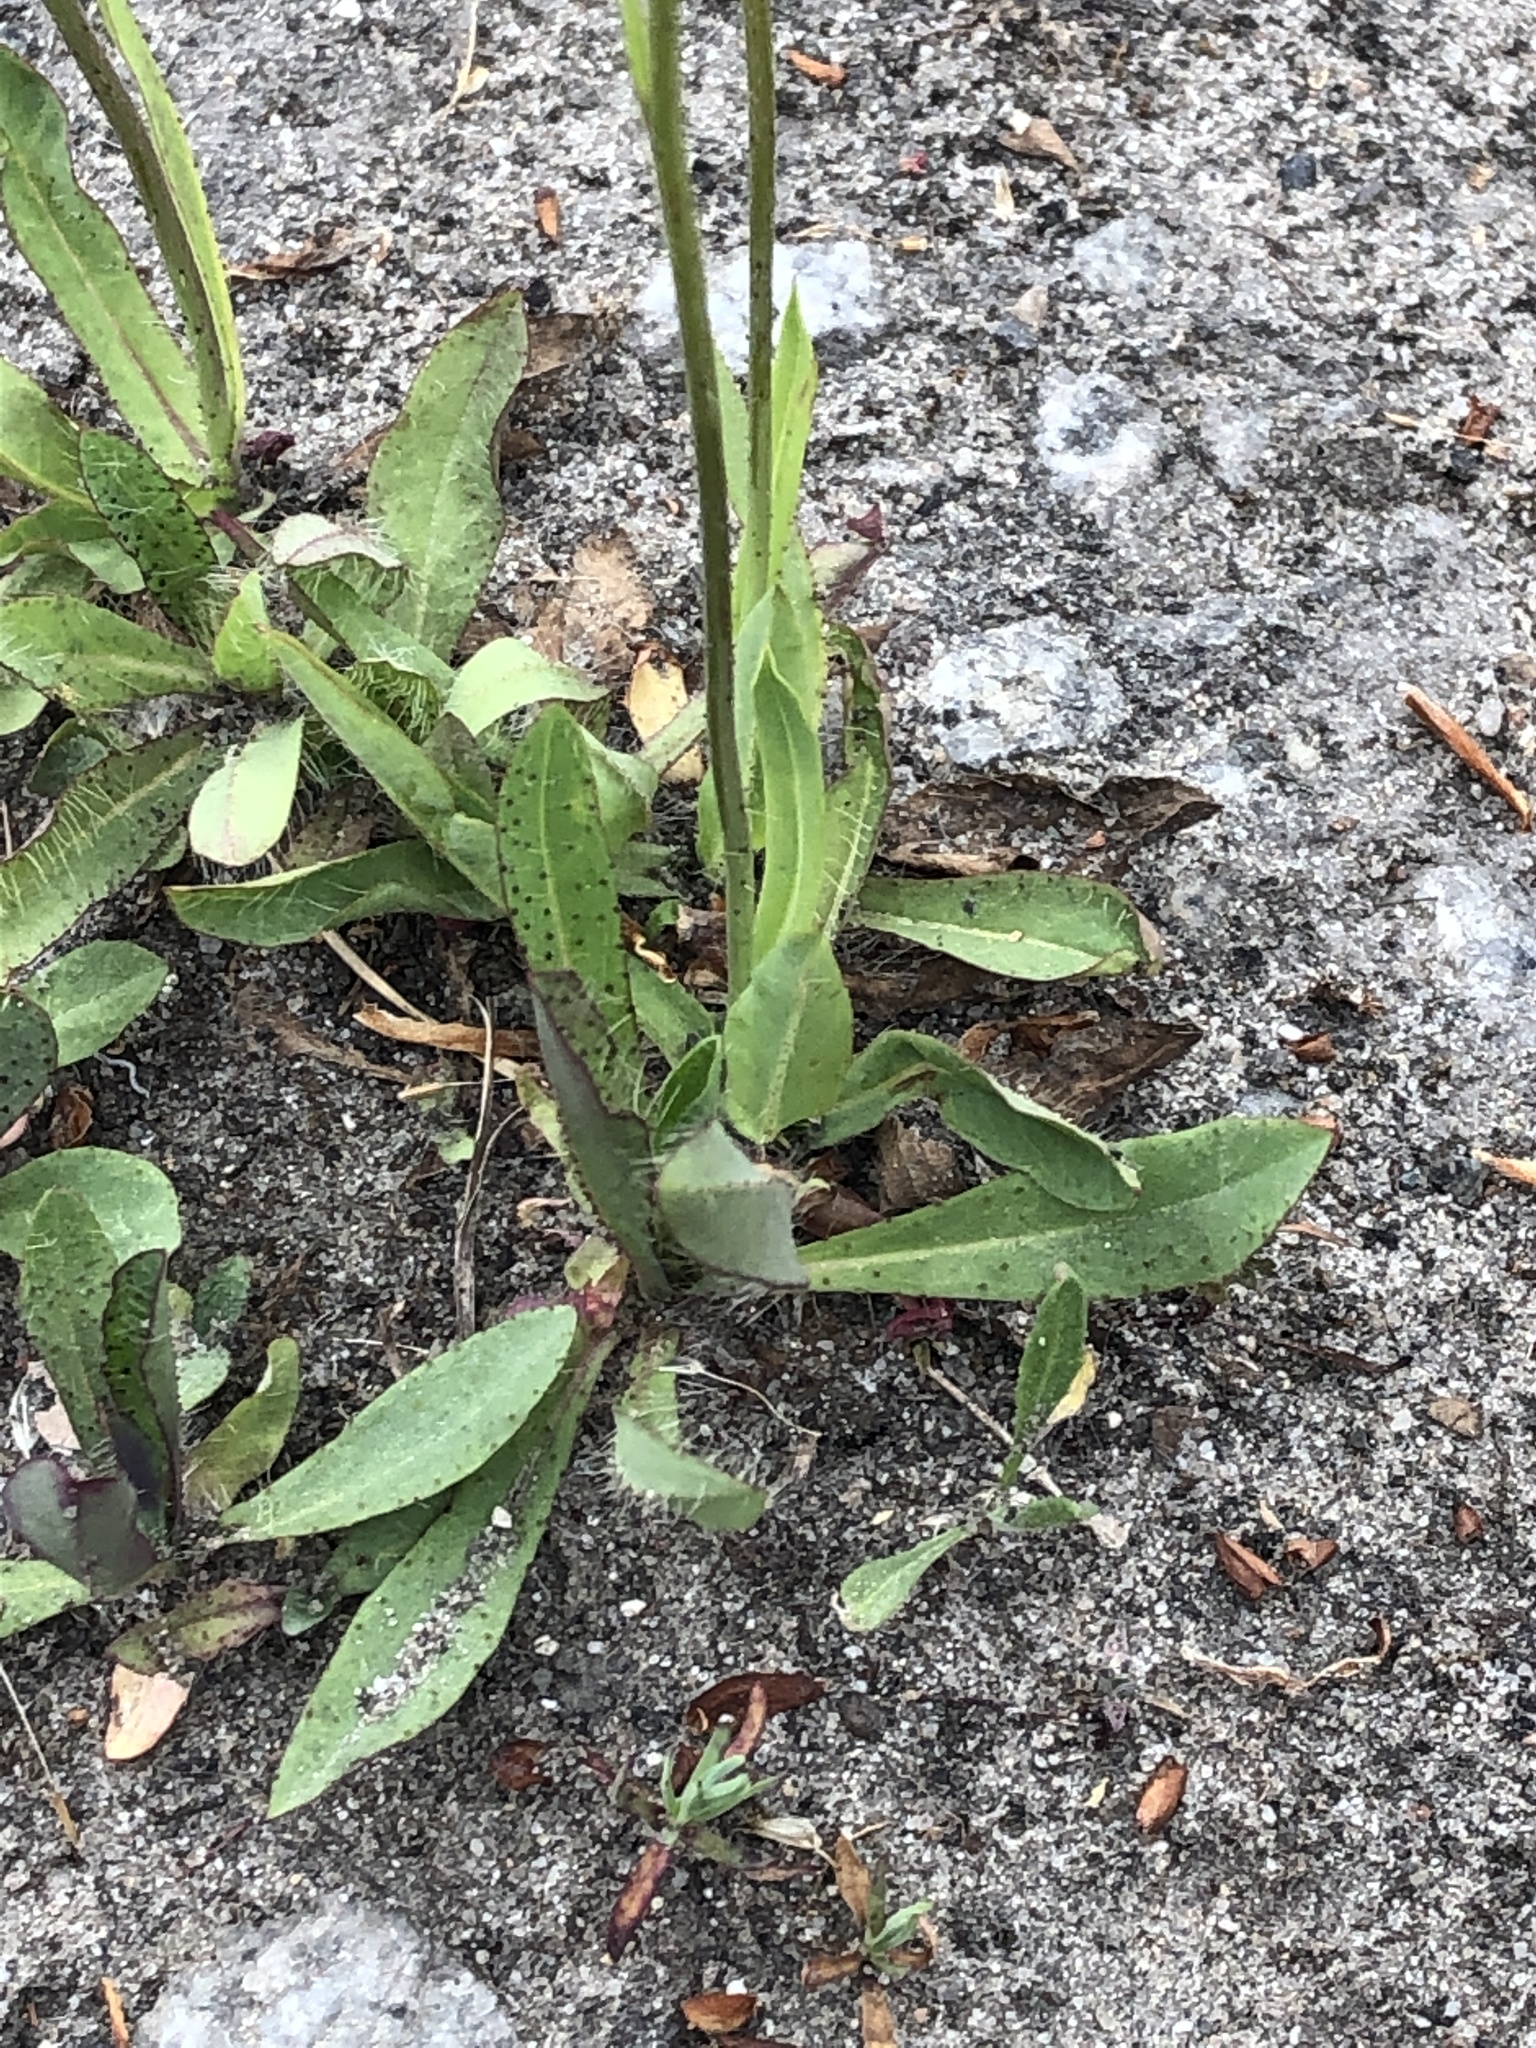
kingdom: Plantae
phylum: Tracheophyta
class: Magnoliopsida
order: Asterales
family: Asteraceae
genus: Pilosella
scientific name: Pilosella caespitosa
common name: Yellow fox-and-cubs
